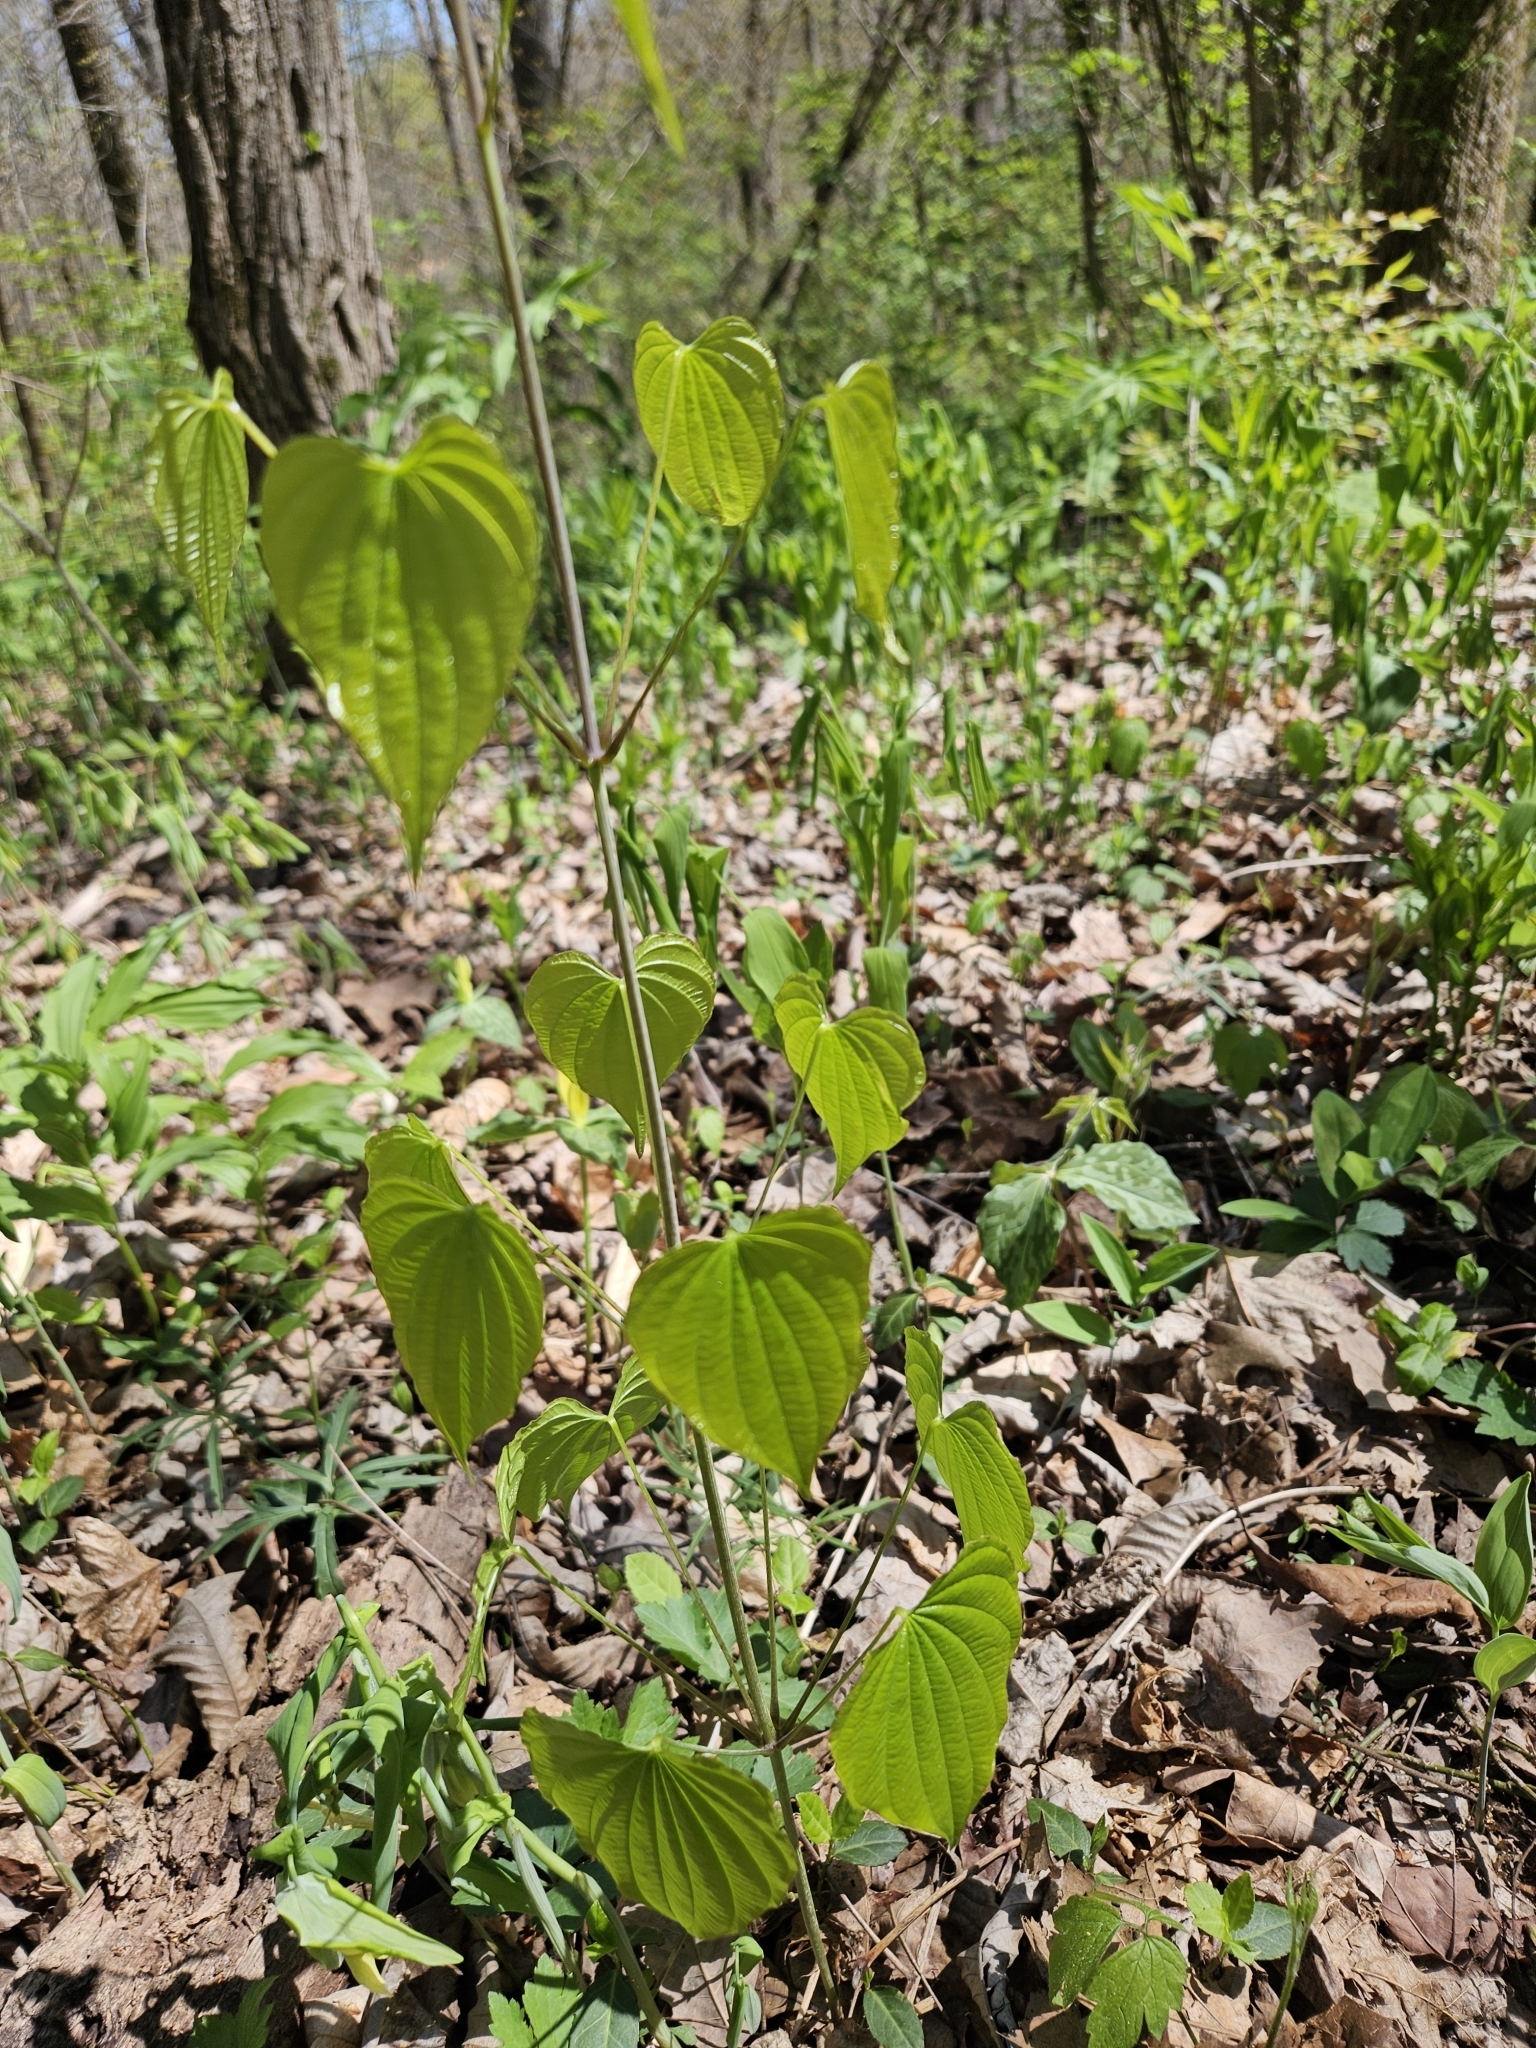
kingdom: Plantae
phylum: Tracheophyta
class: Liliopsida
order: Dioscoreales
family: Dioscoreaceae
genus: Dioscorea
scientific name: Dioscorea villosa
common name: Wild yam
